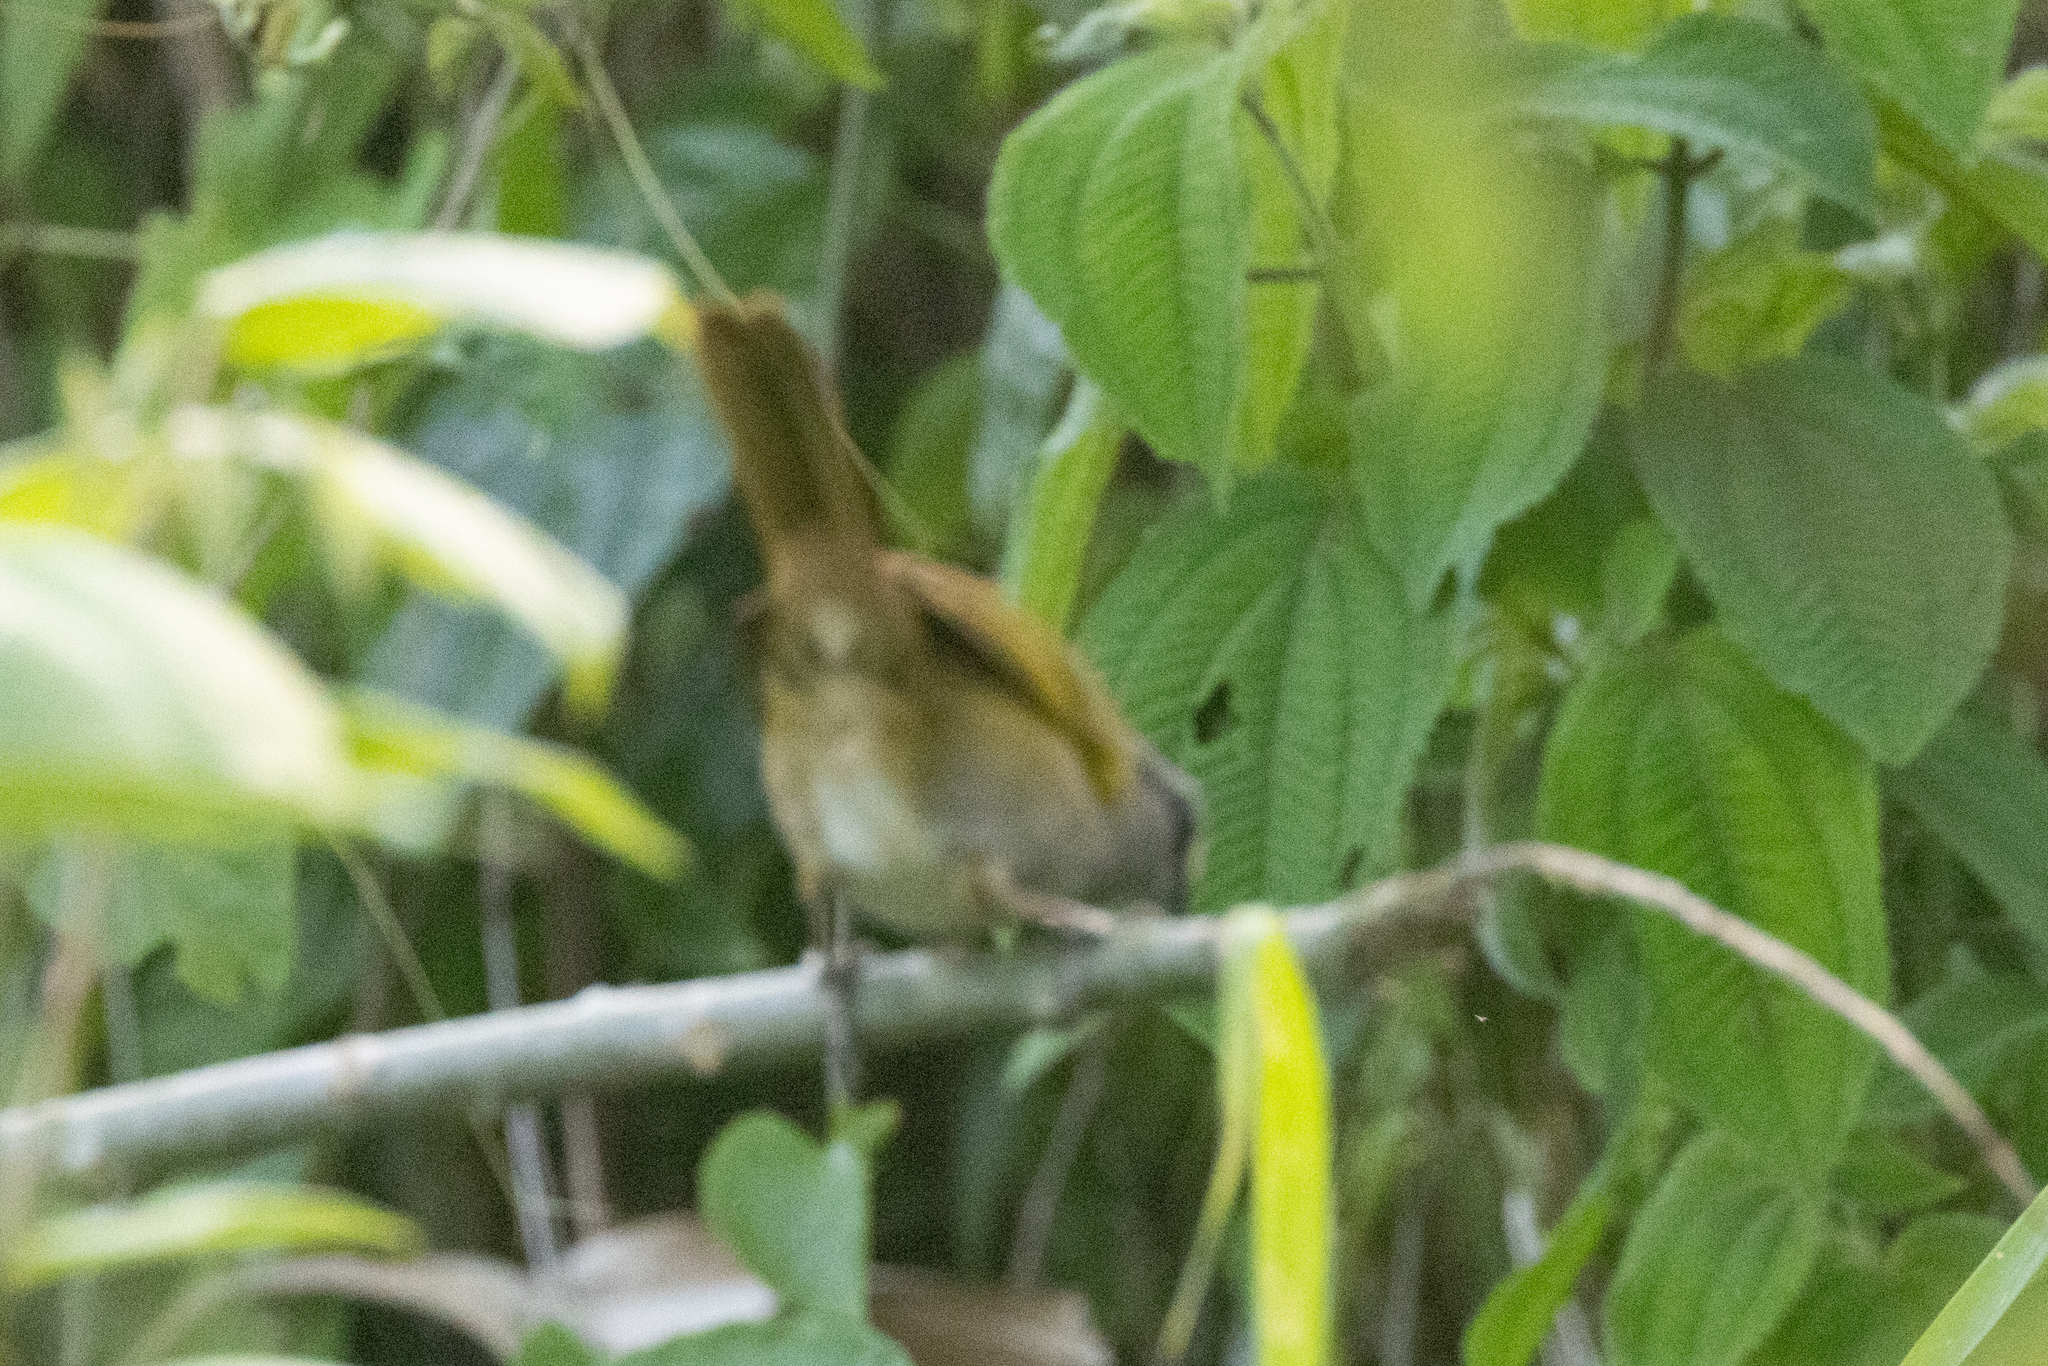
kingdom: Animalia
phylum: Chordata
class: Aves
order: Passeriformes
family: Passerellidae
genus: Arremonops
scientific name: Arremonops conirostris
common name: Black-striped sparrow
